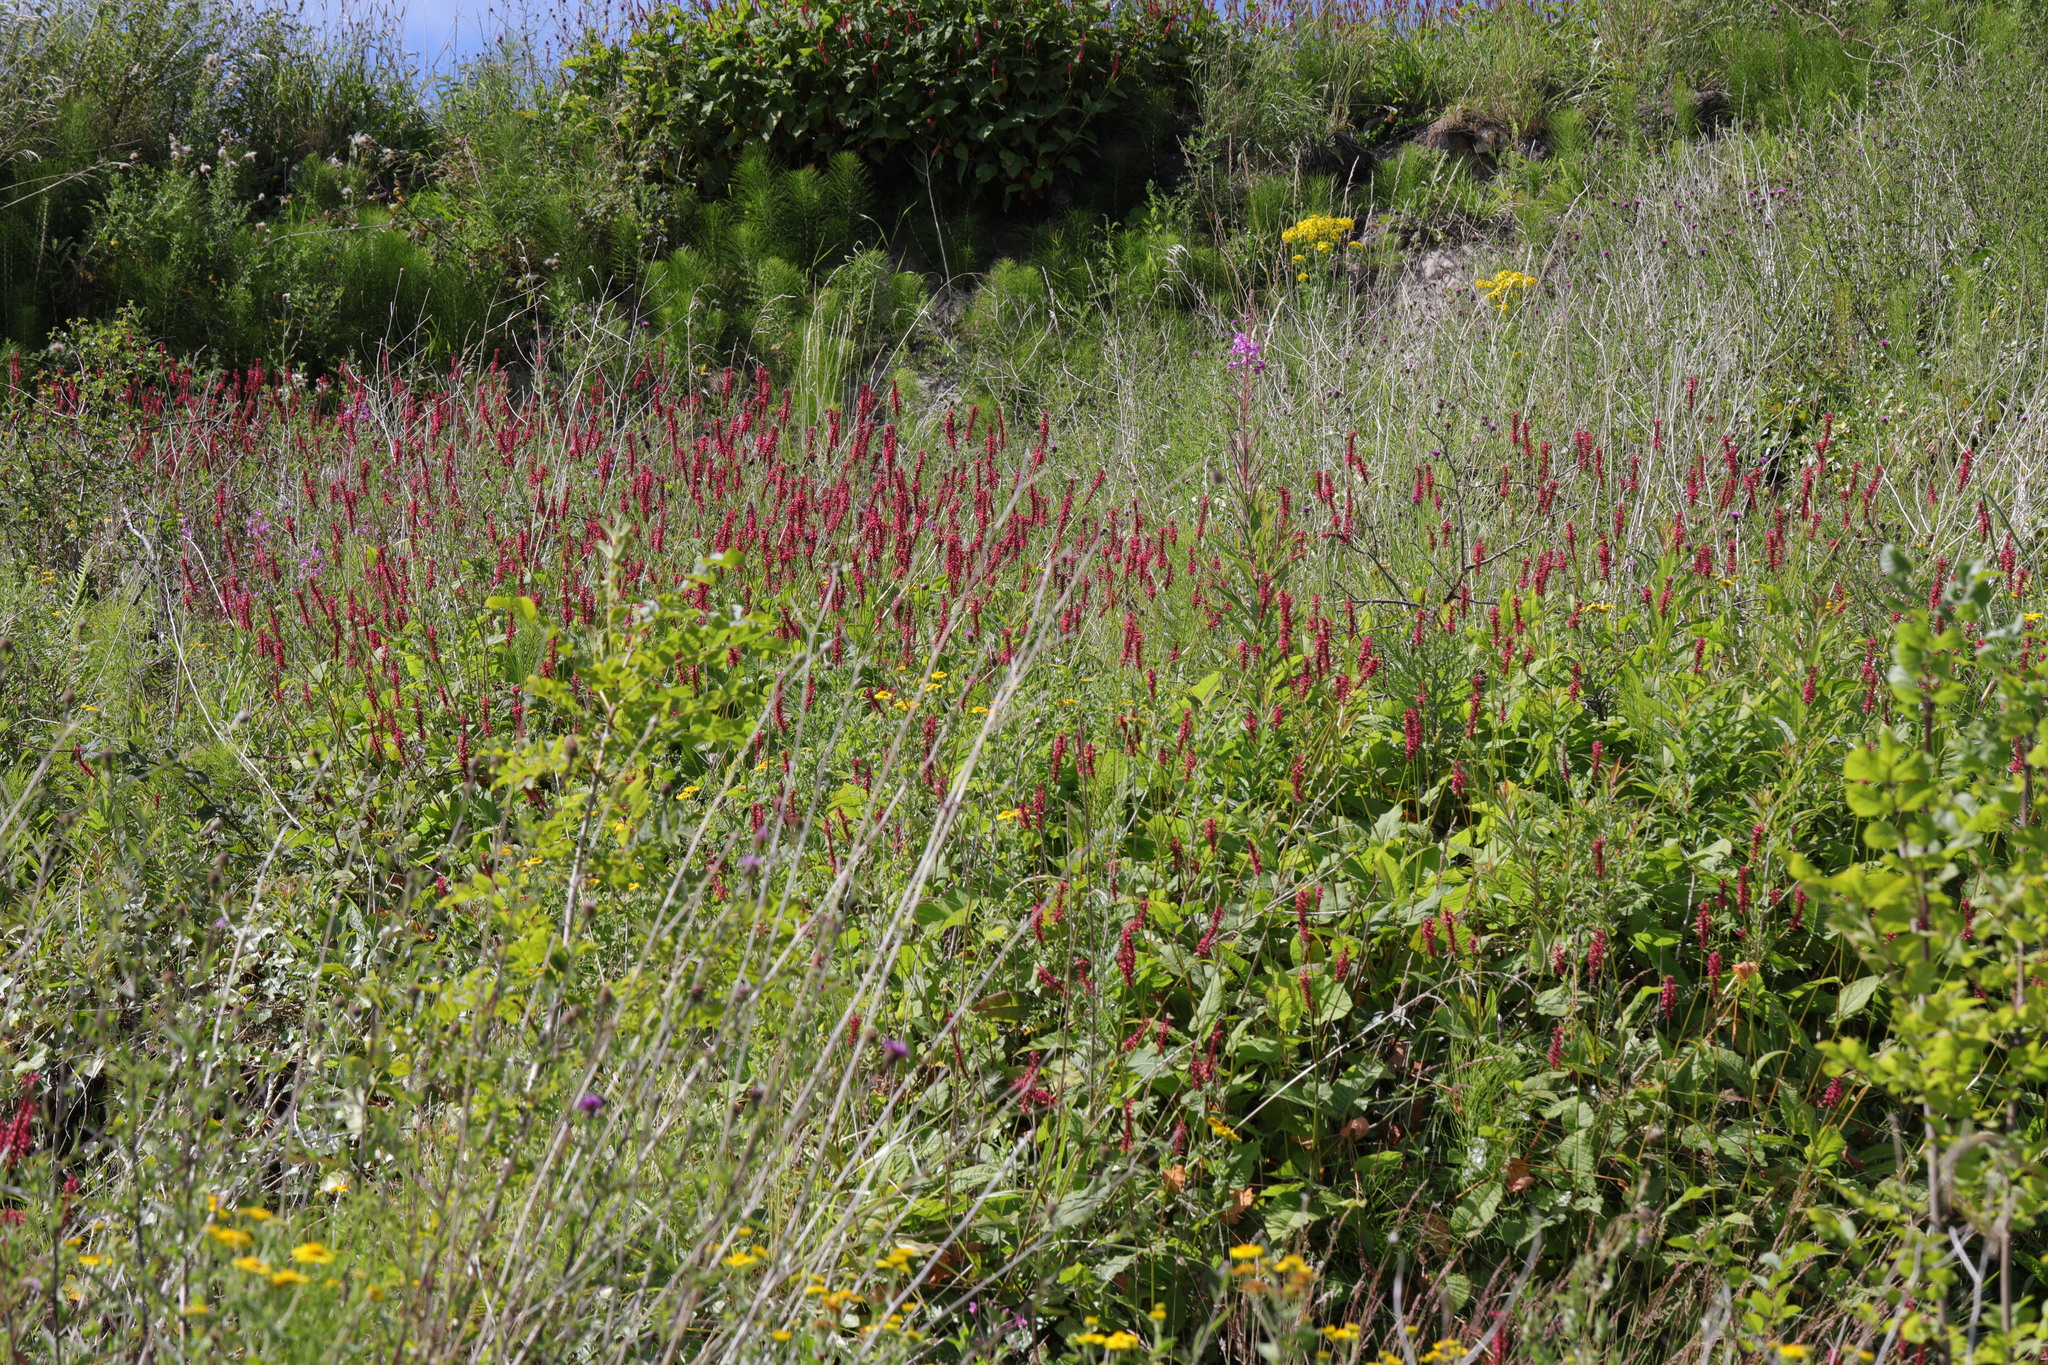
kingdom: Plantae
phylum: Tracheophyta
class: Magnoliopsida
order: Caryophyllales
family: Polygonaceae
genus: Bistorta
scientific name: Bistorta amplexicaulis
